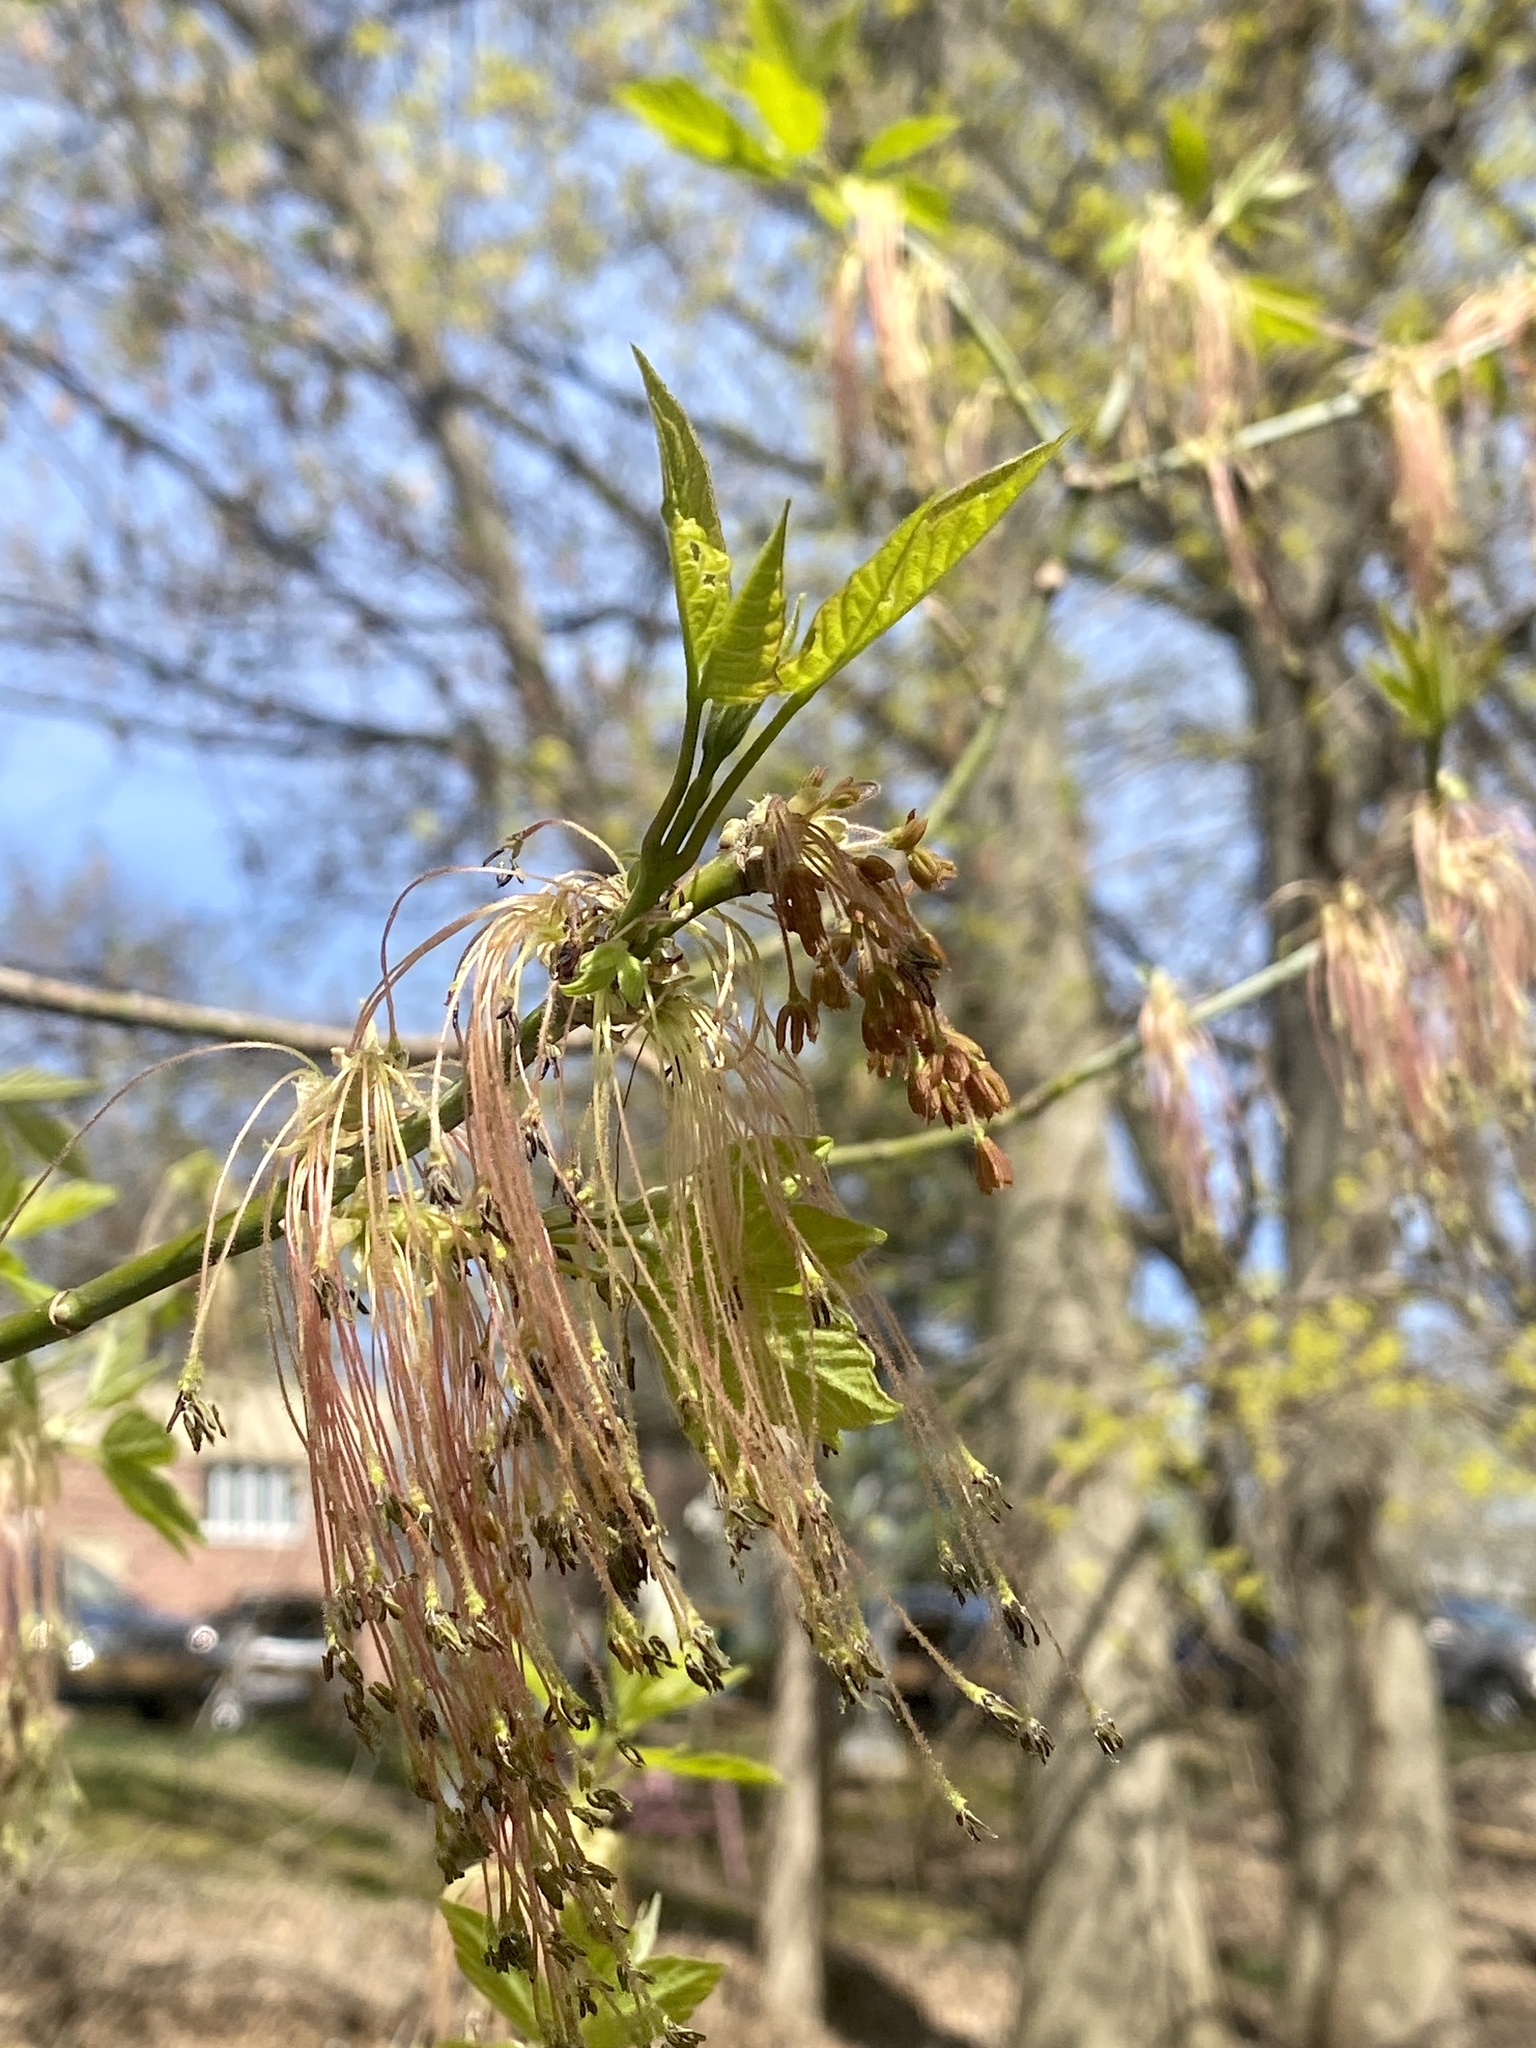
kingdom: Plantae
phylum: Tracheophyta
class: Magnoliopsida
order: Sapindales
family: Sapindaceae
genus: Acer
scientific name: Acer negundo
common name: Ashleaf maple
